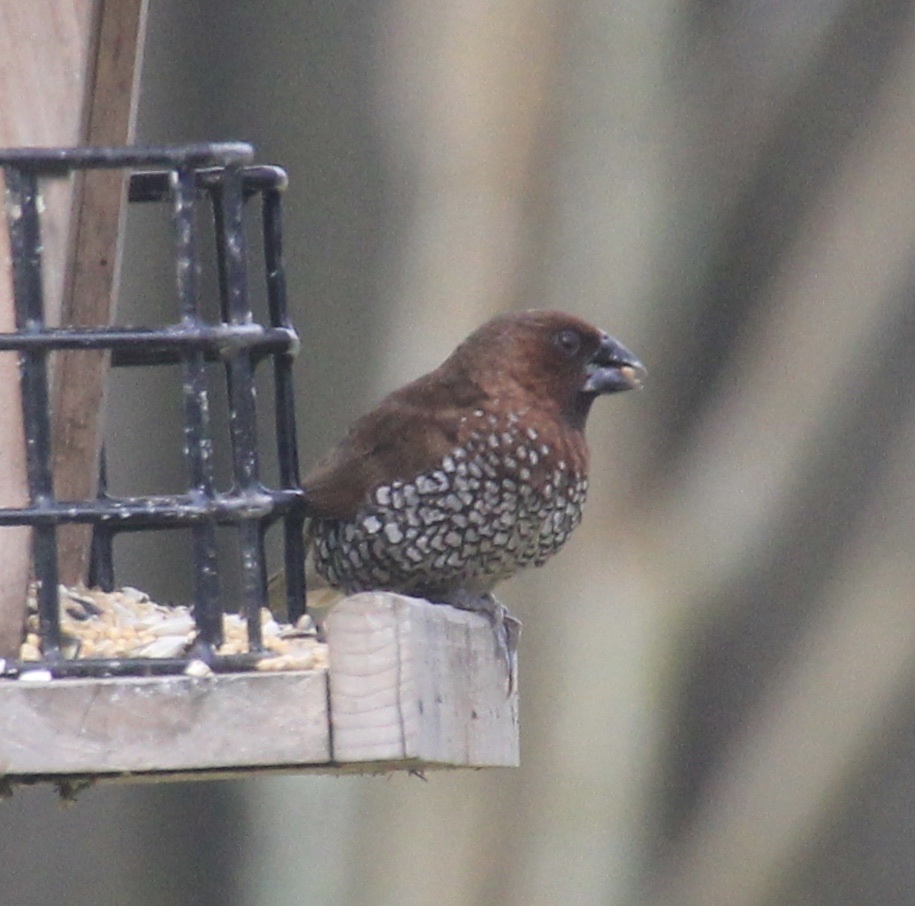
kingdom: Animalia
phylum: Chordata
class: Aves
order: Passeriformes
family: Estrildidae
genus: Lonchura
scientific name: Lonchura punctulata
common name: Scaly-breasted munia
